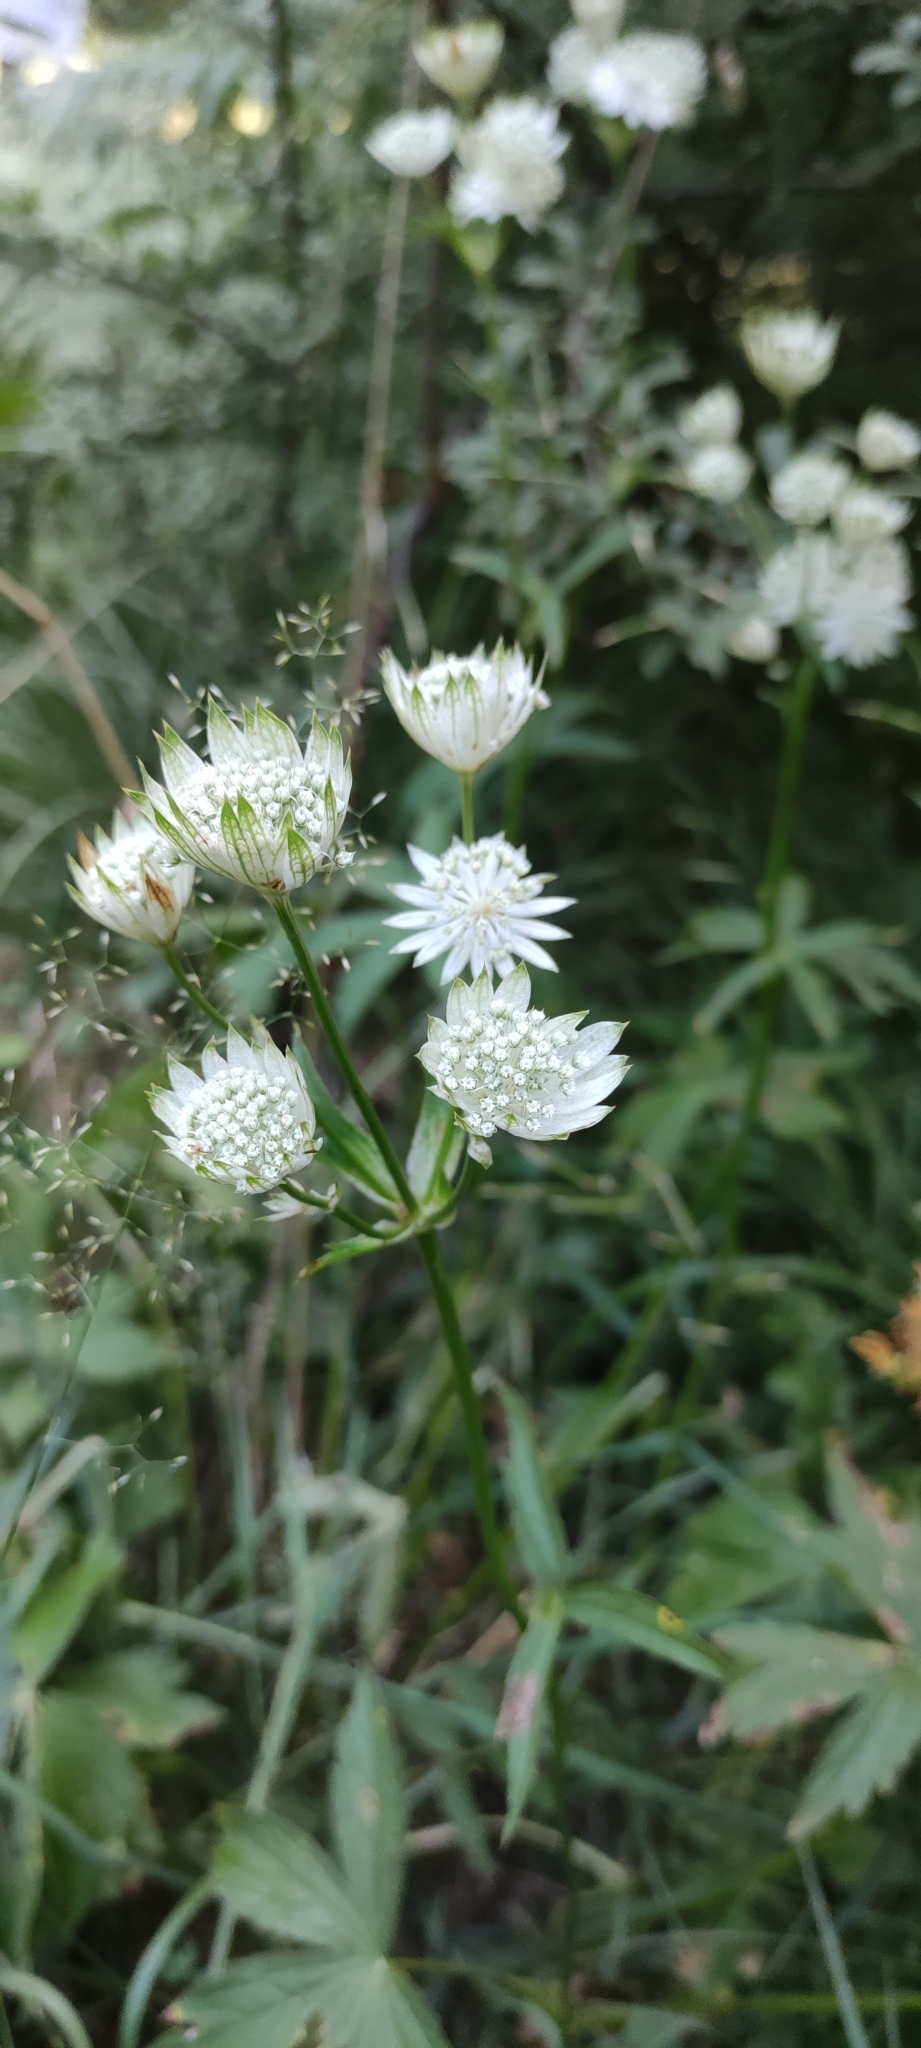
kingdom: Plantae
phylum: Tracheophyta
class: Magnoliopsida
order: Apiales
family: Apiaceae
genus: Astrantia
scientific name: Astrantia major
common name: Greater masterwort
